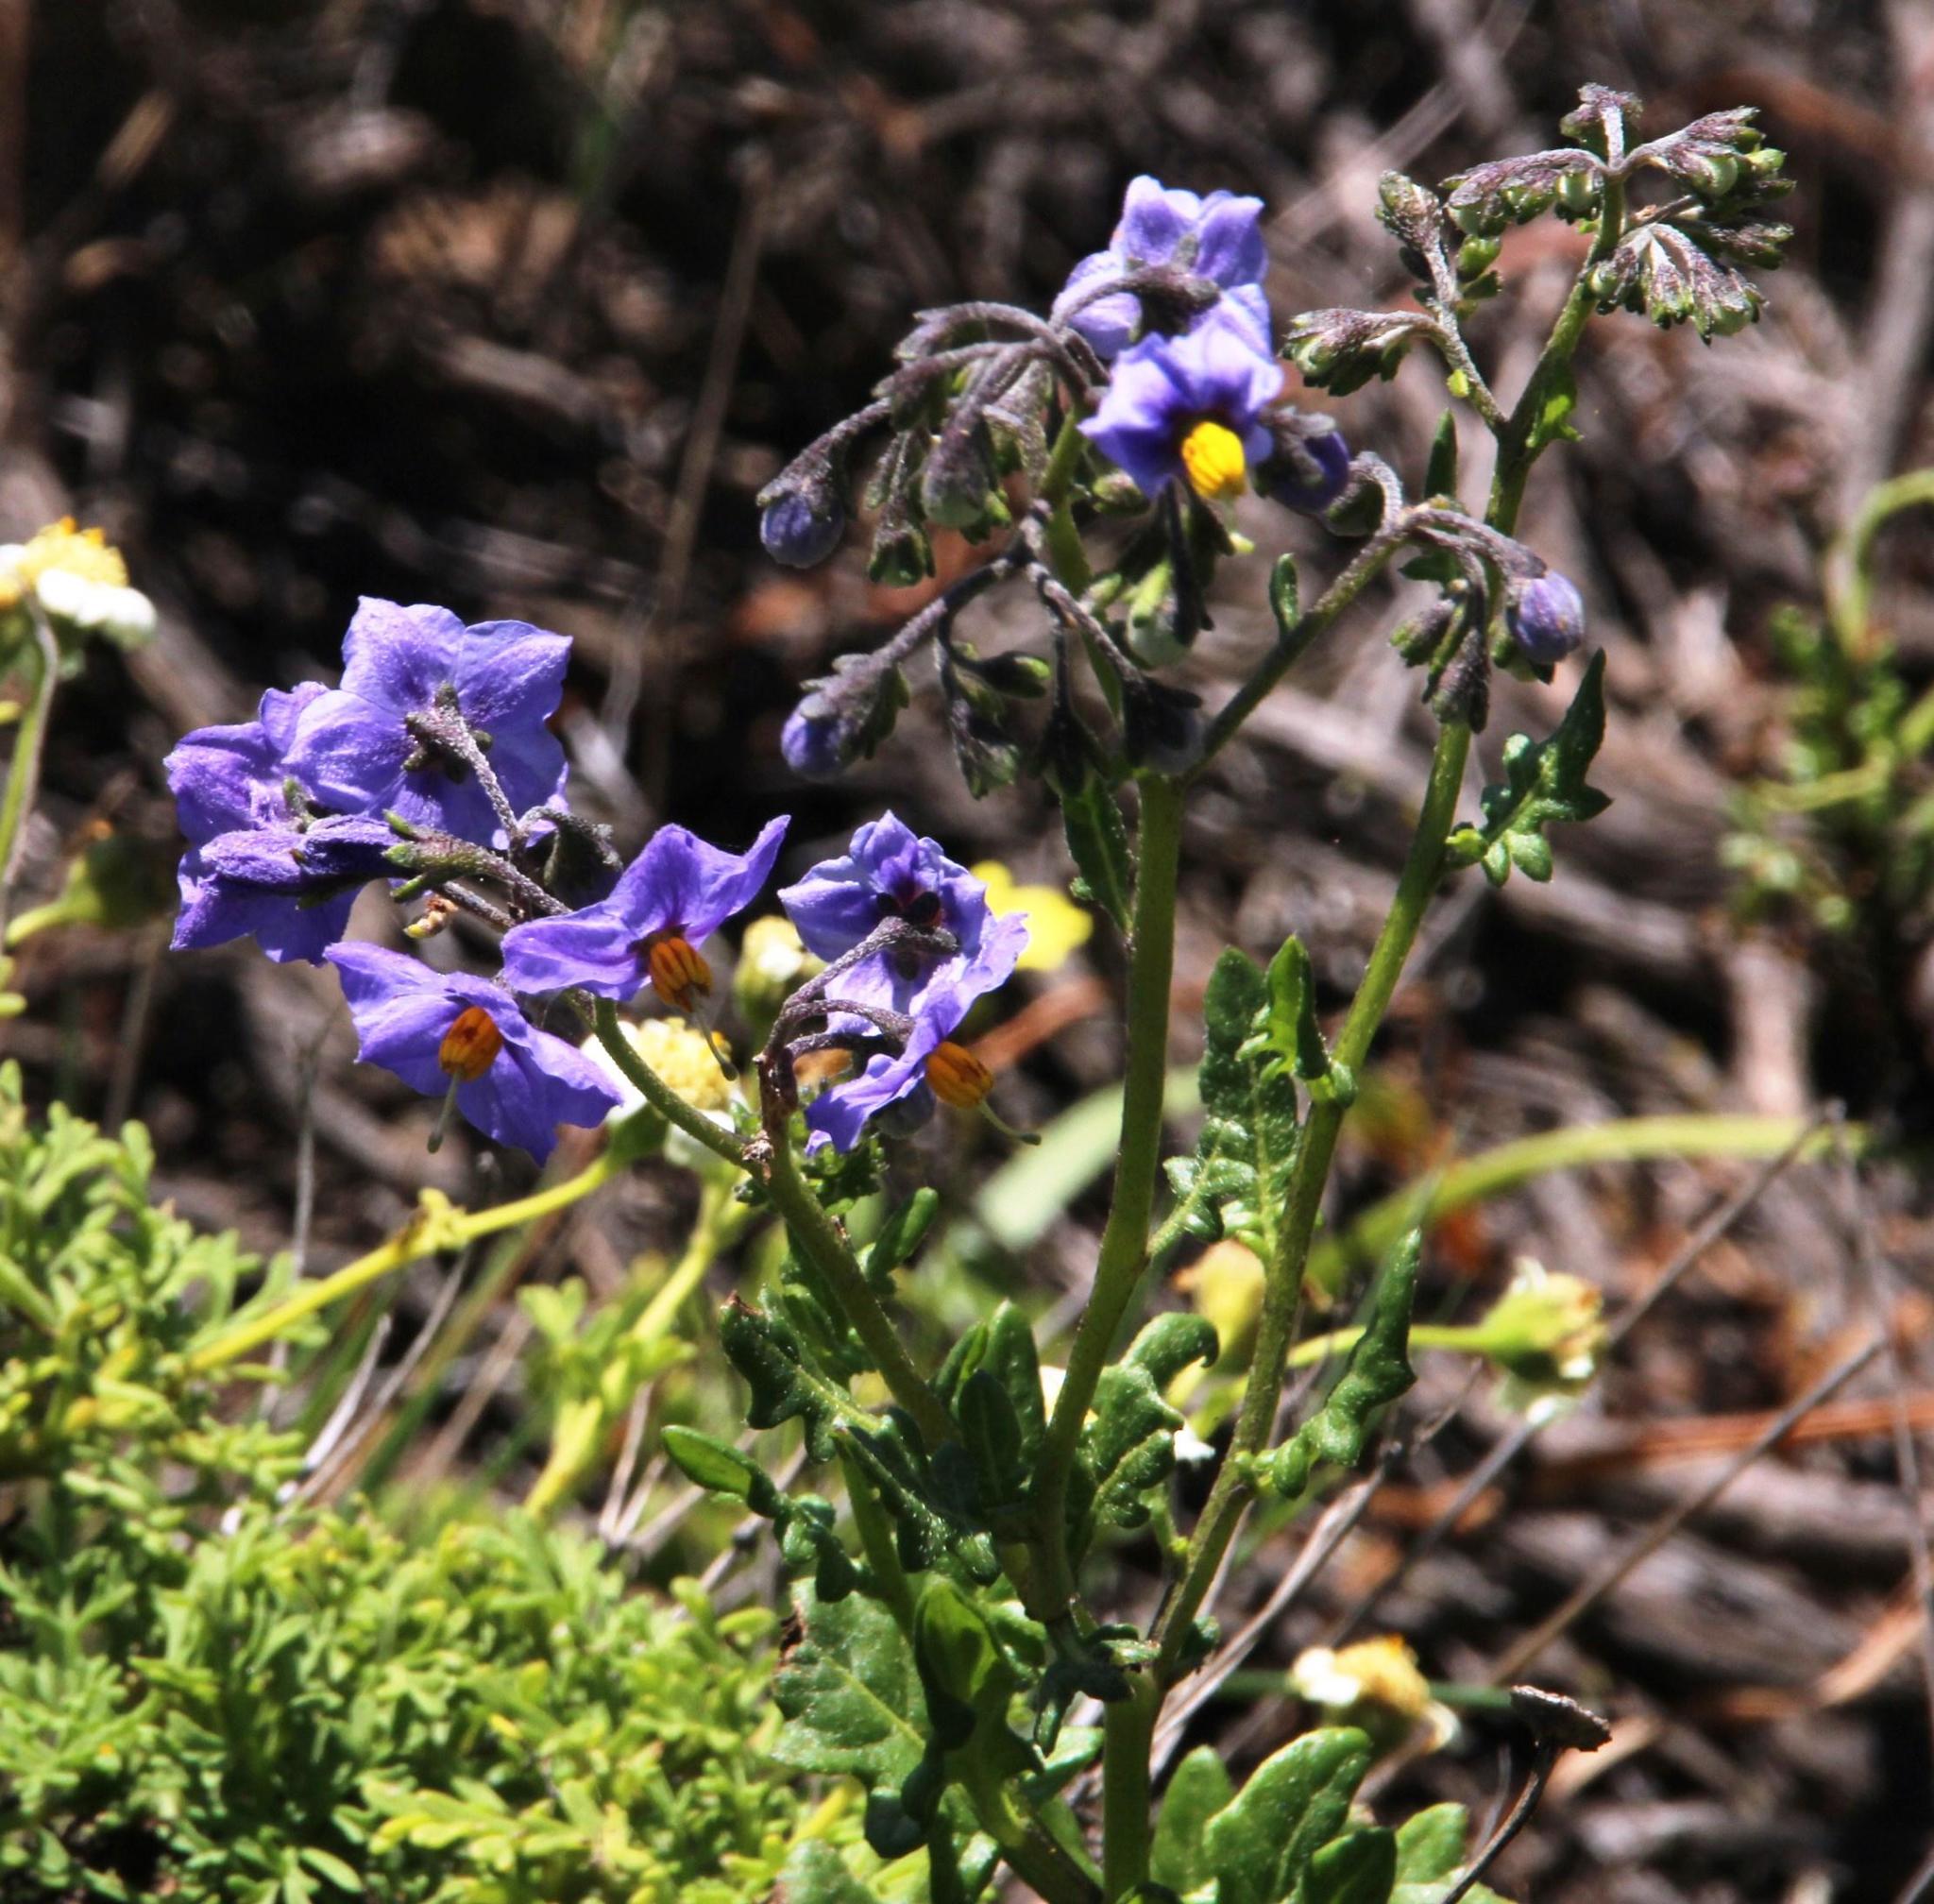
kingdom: Plantae
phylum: Tracheophyta
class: Magnoliopsida
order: Solanales
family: Solanaceae
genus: Solanum
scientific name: Solanum pinnatum
